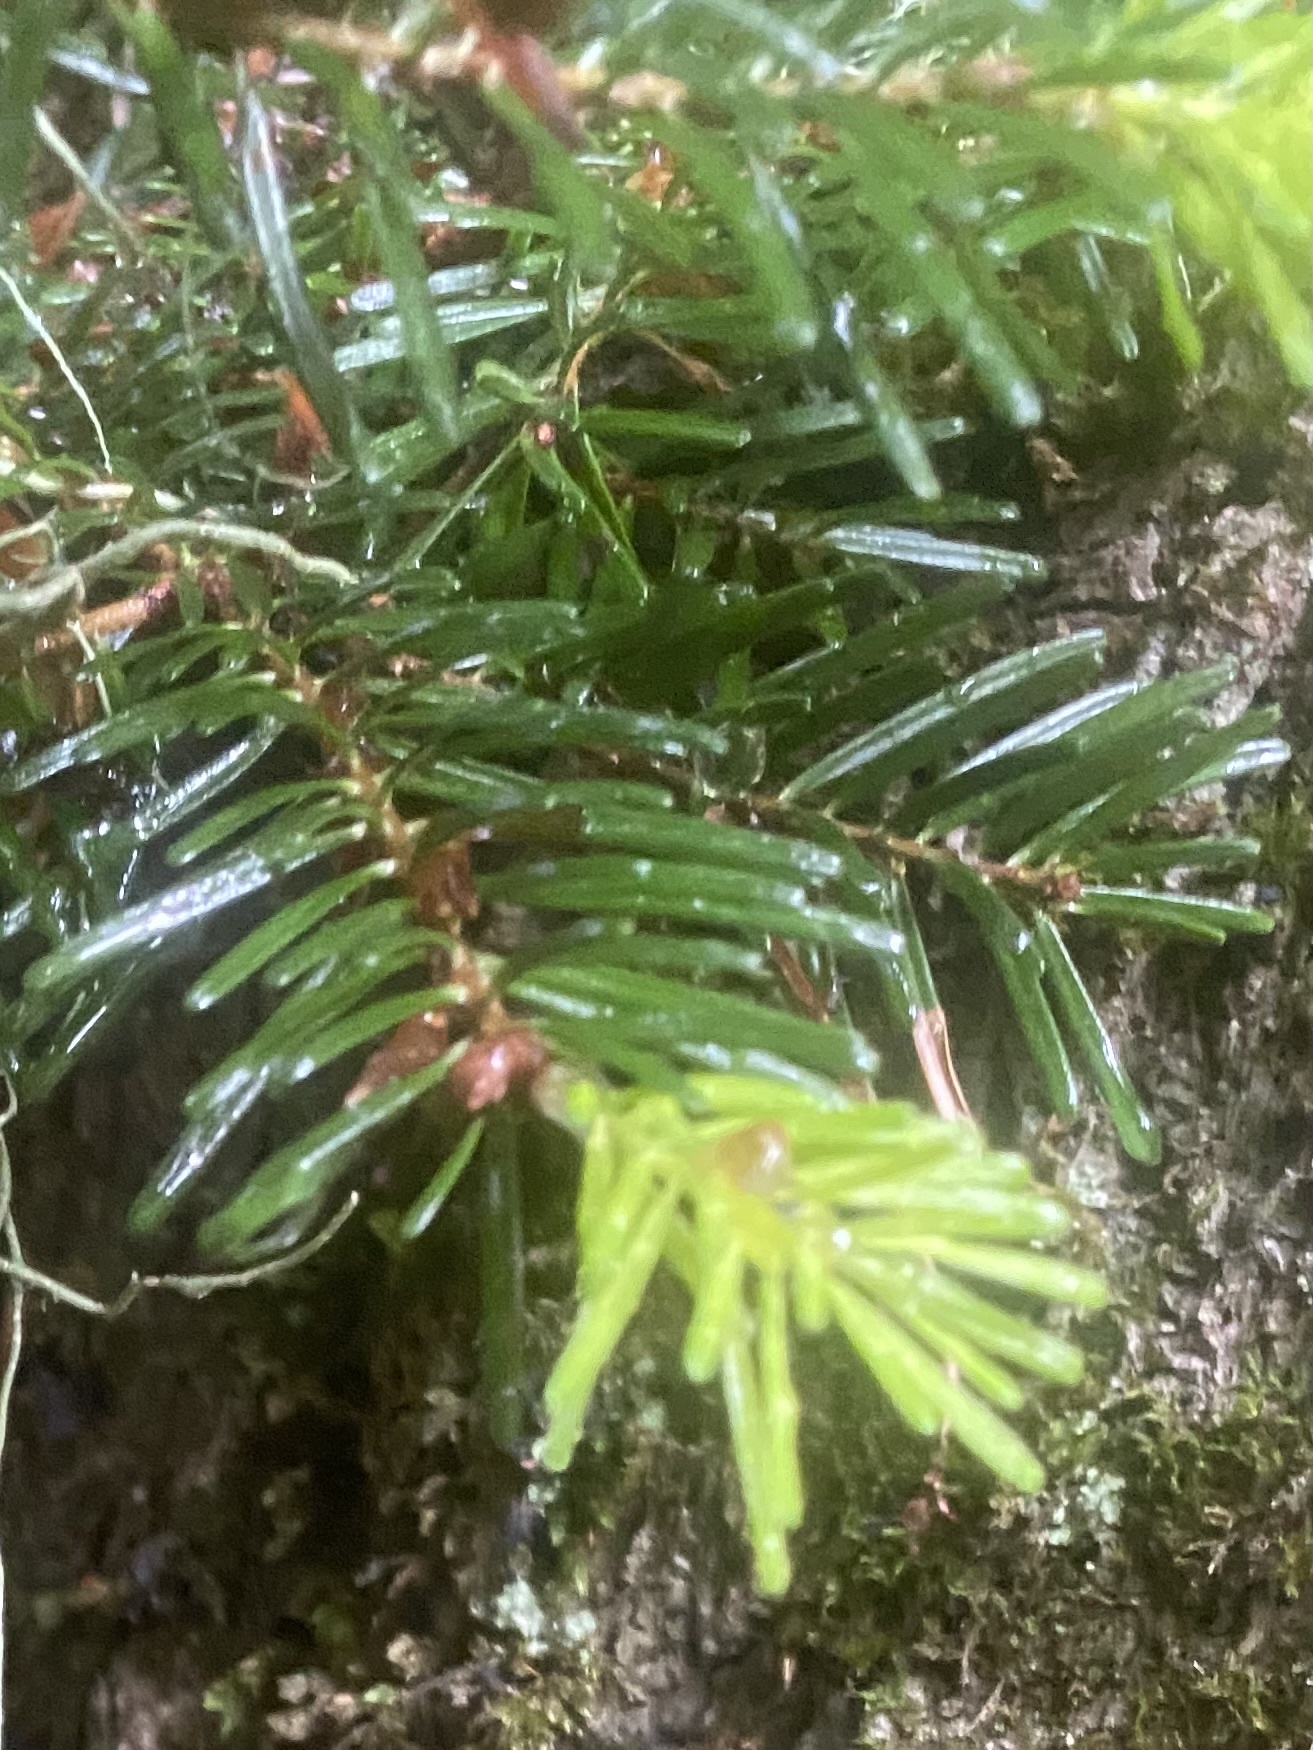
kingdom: Plantae
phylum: Tracheophyta
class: Pinopsida
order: Pinales
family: Pinaceae
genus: Abies
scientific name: Abies nordmanniana
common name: Caucasian fir
